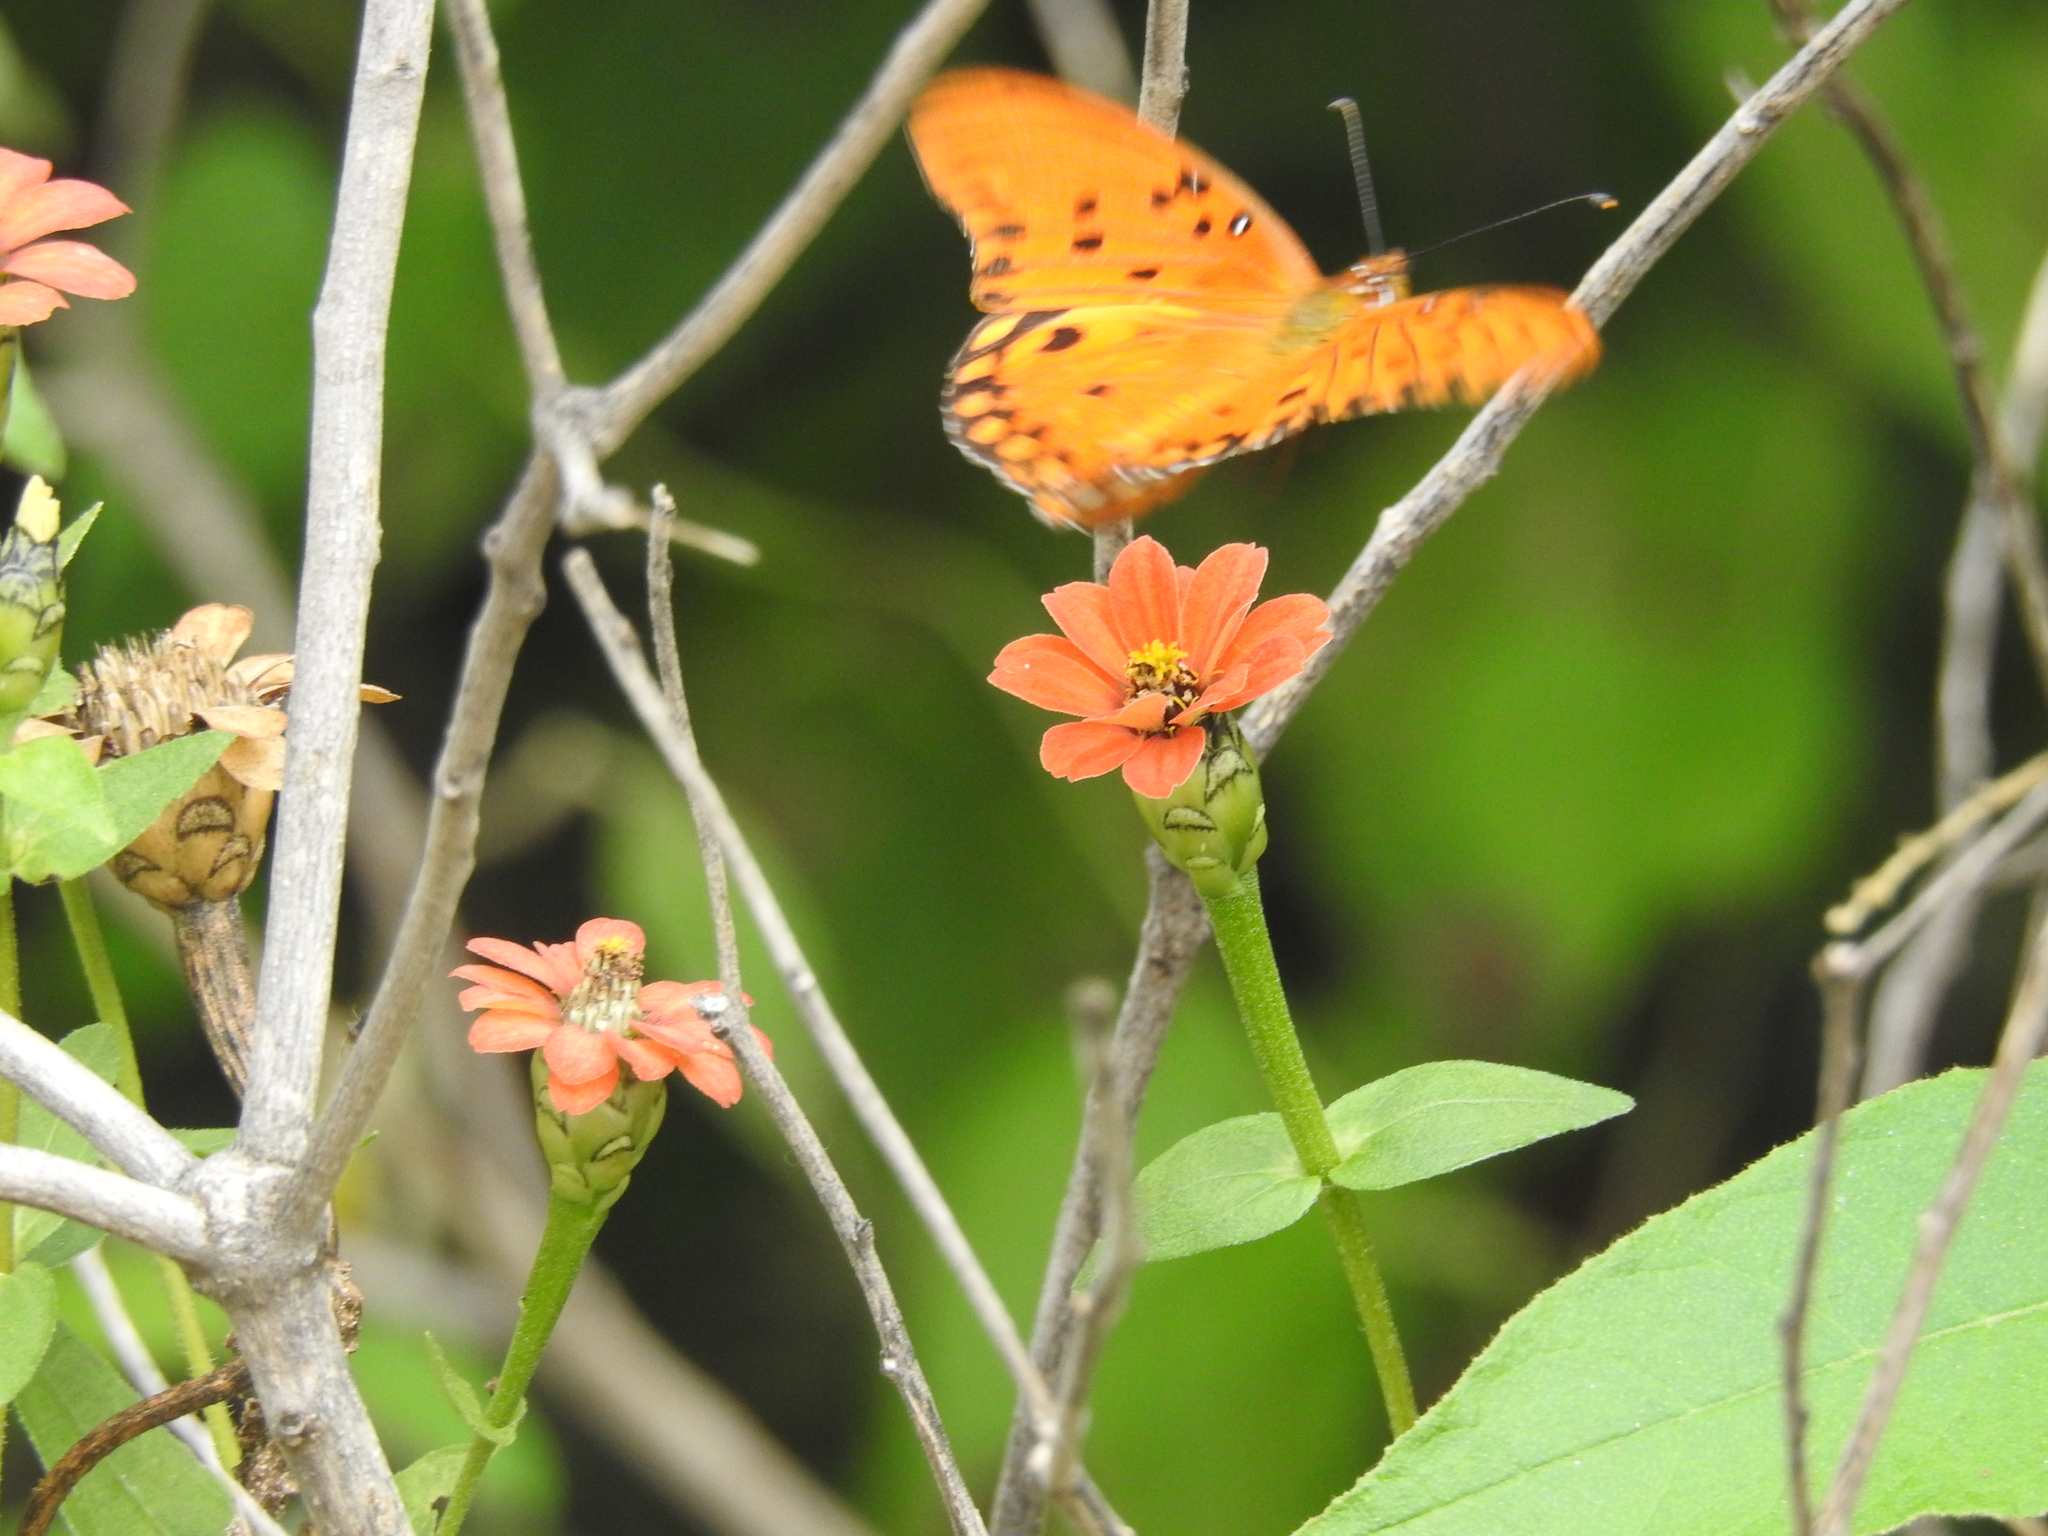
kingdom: Animalia
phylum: Arthropoda
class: Insecta
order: Lepidoptera
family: Nymphalidae
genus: Dione
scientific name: Dione vanillae
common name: Gulf fritillary
